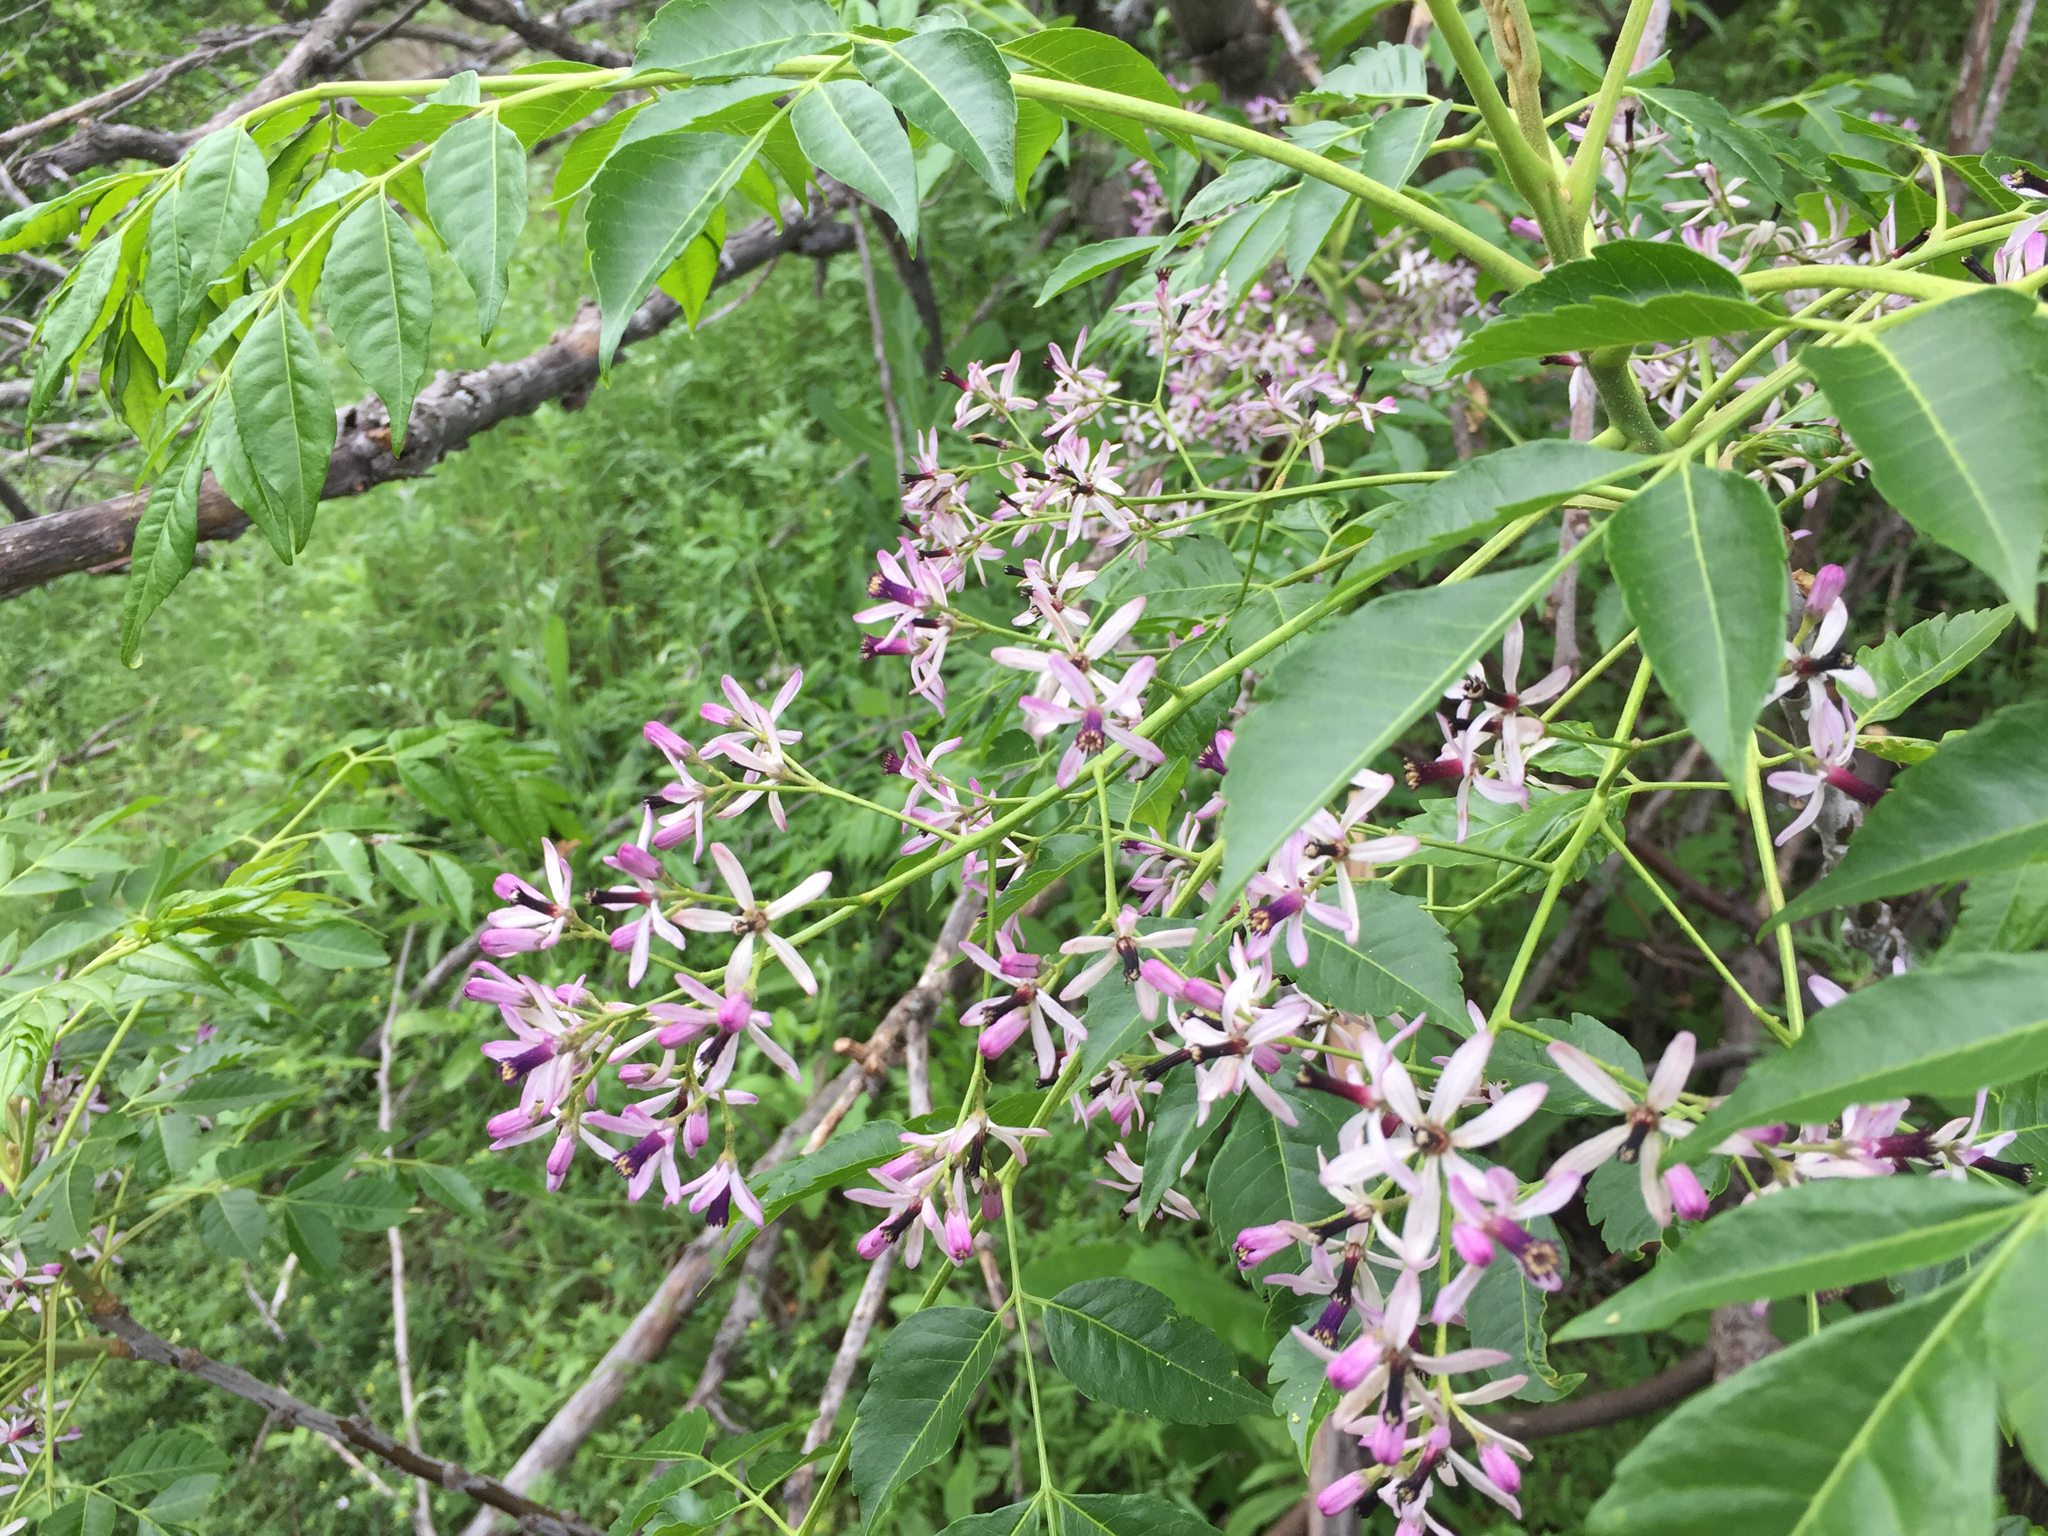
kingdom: Plantae
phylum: Tracheophyta
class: Magnoliopsida
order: Sapindales
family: Meliaceae
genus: Melia
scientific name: Melia azedarach
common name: Chinaberrytree
